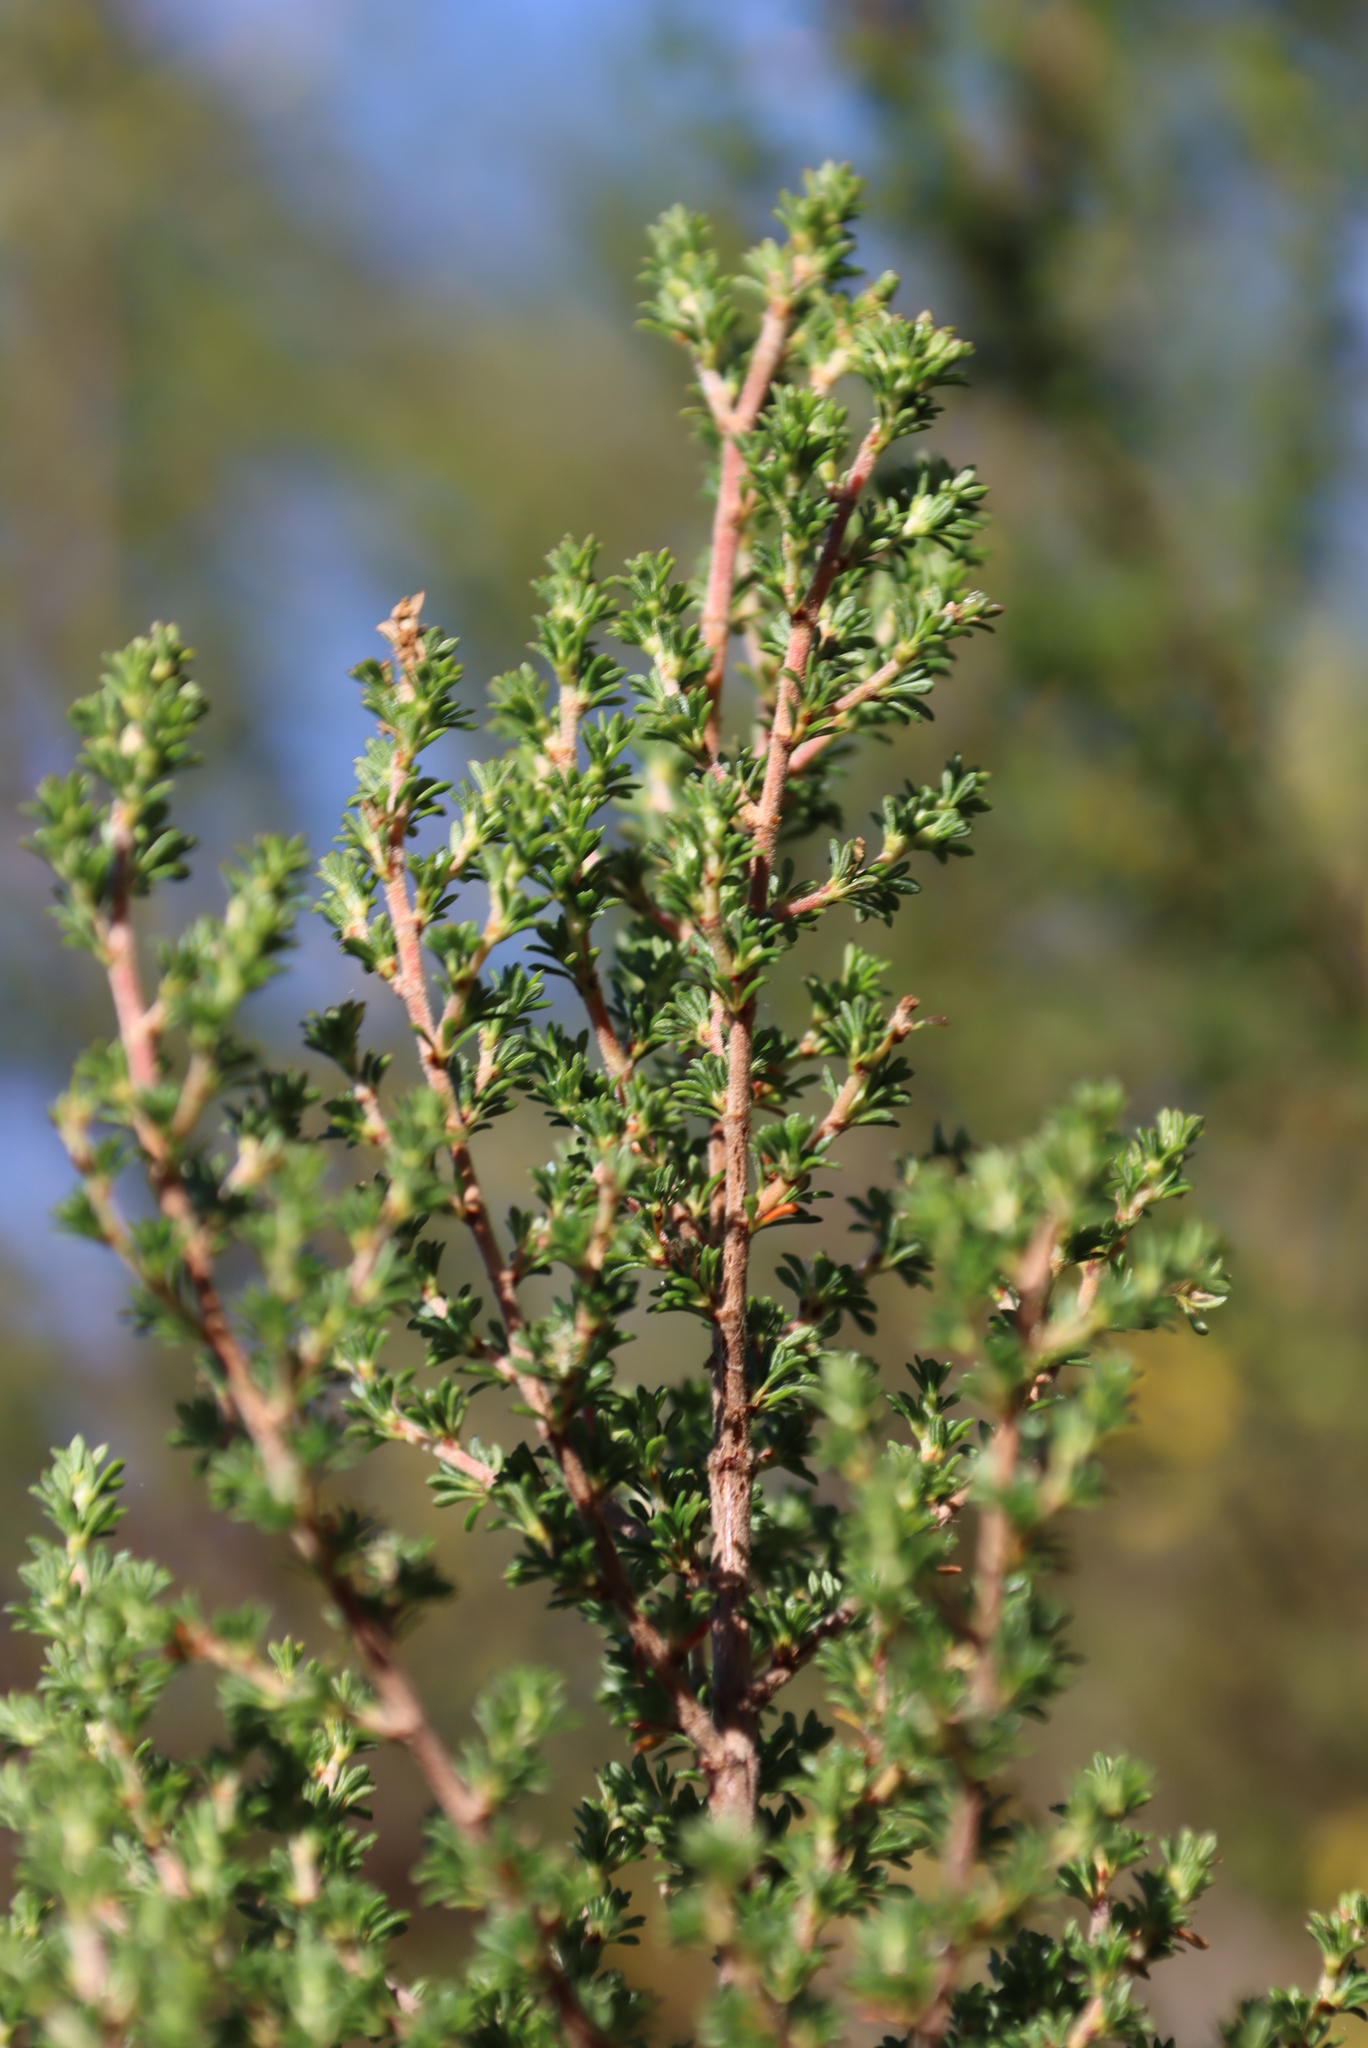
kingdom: Plantae
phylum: Tracheophyta
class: Magnoliopsida
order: Rosales
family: Rosaceae
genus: Cliffortia
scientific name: Cliffortia serpyllifolia
